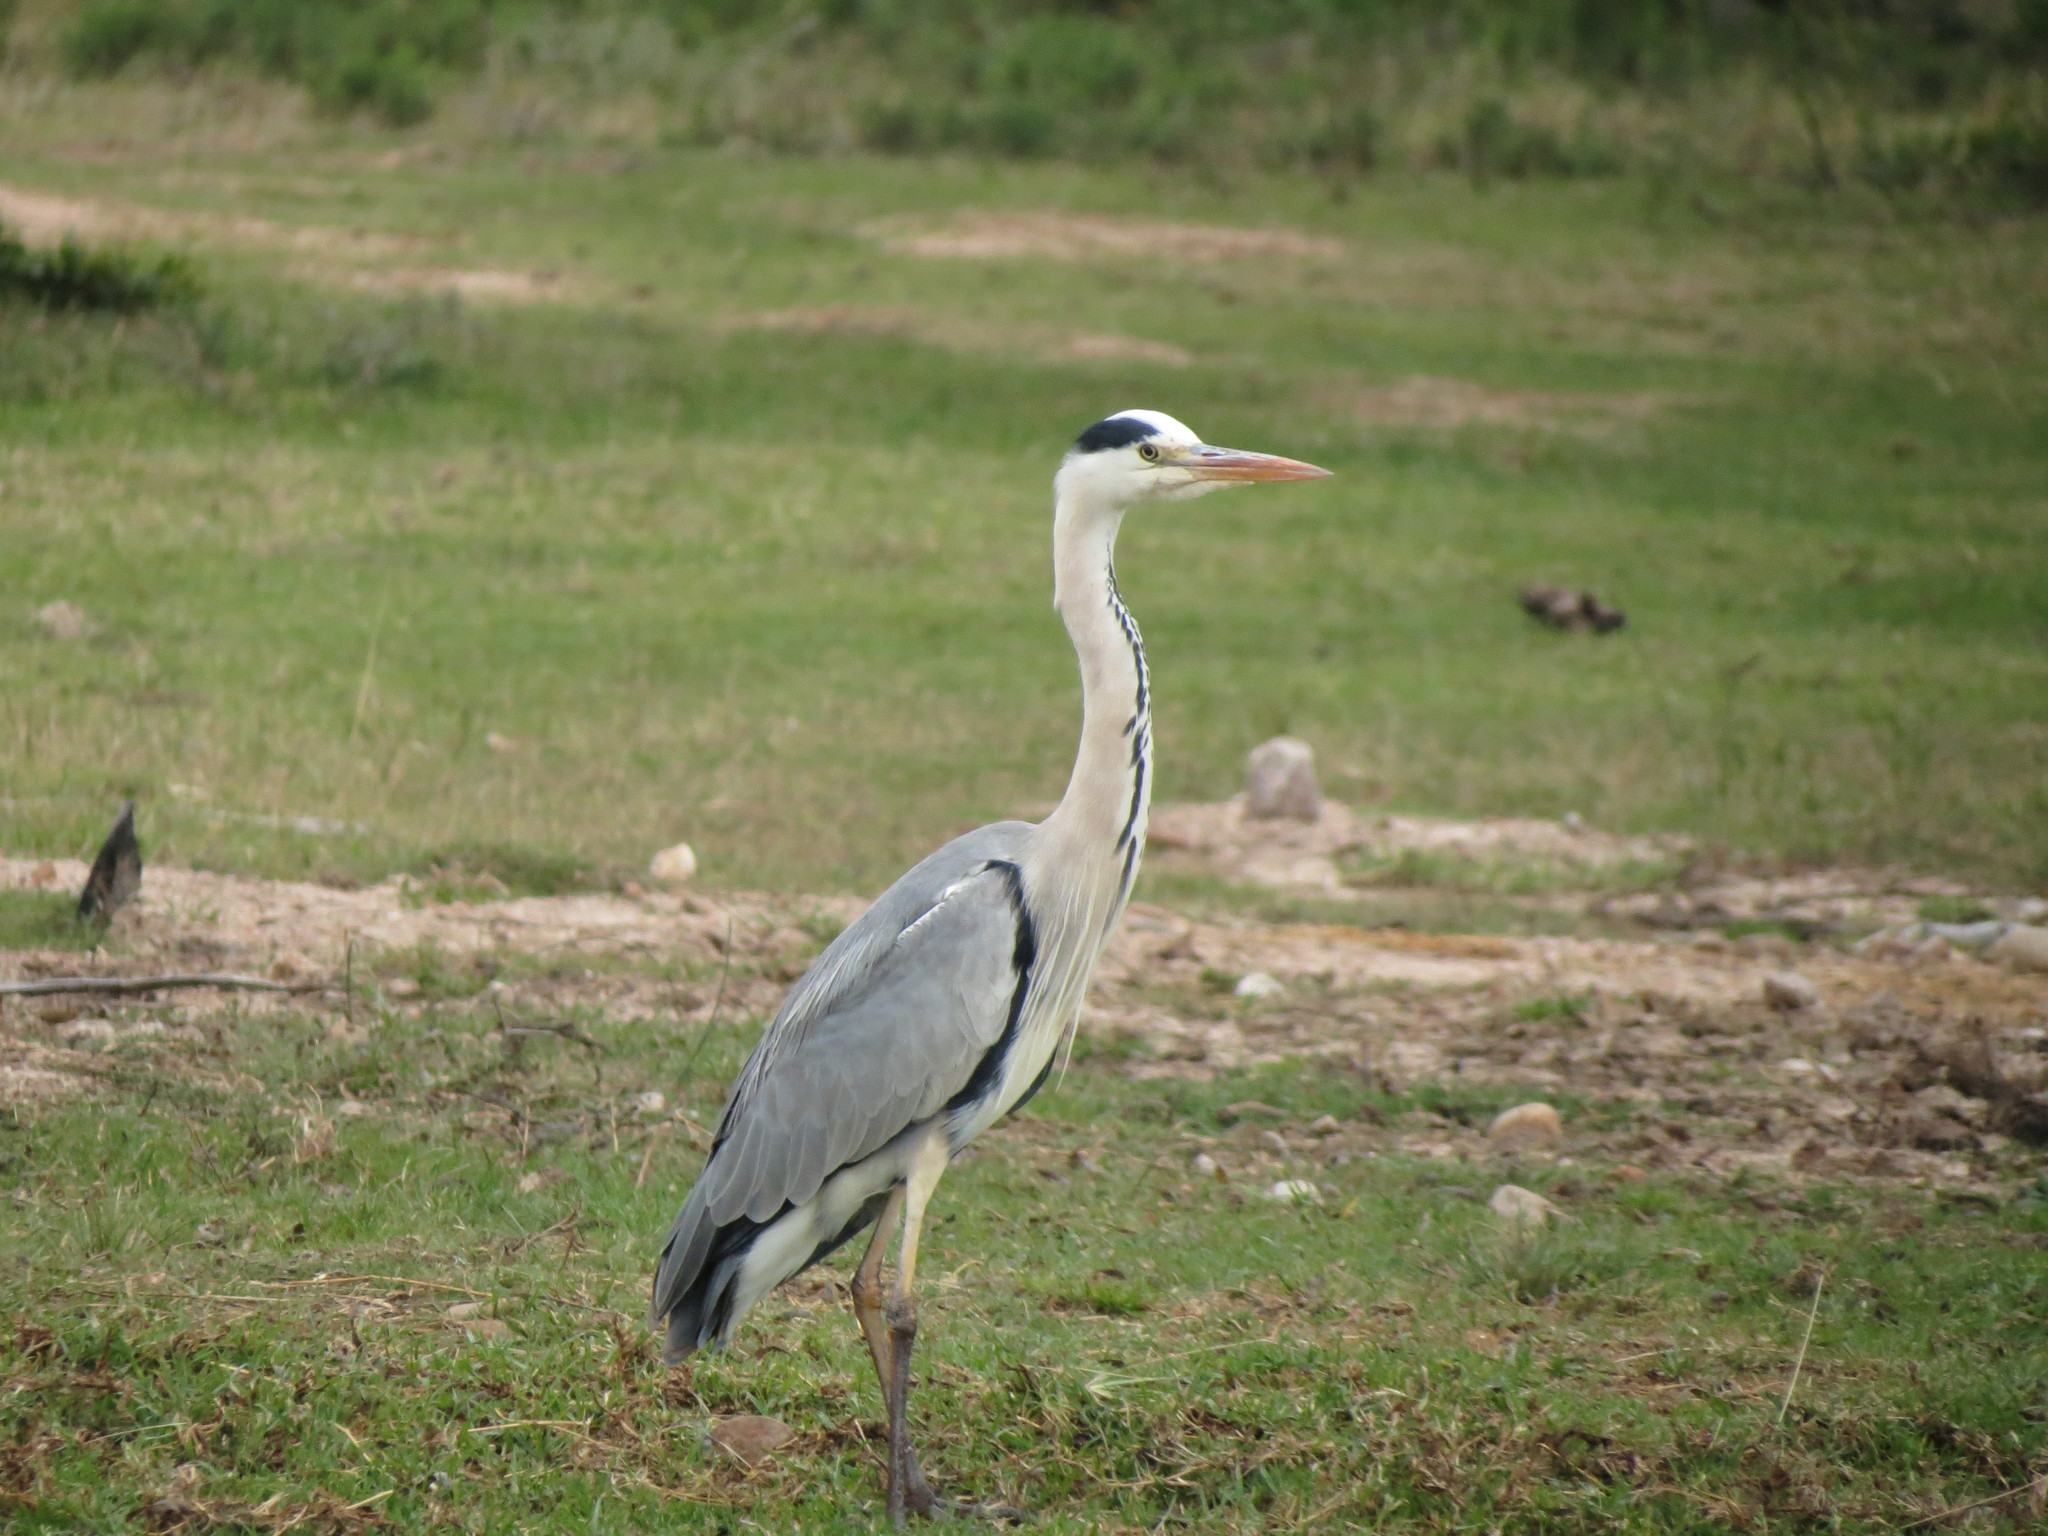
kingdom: Animalia
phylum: Chordata
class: Aves
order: Pelecaniformes
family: Ardeidae
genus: Ardea
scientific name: Ardea cinerea
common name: Grey heron
